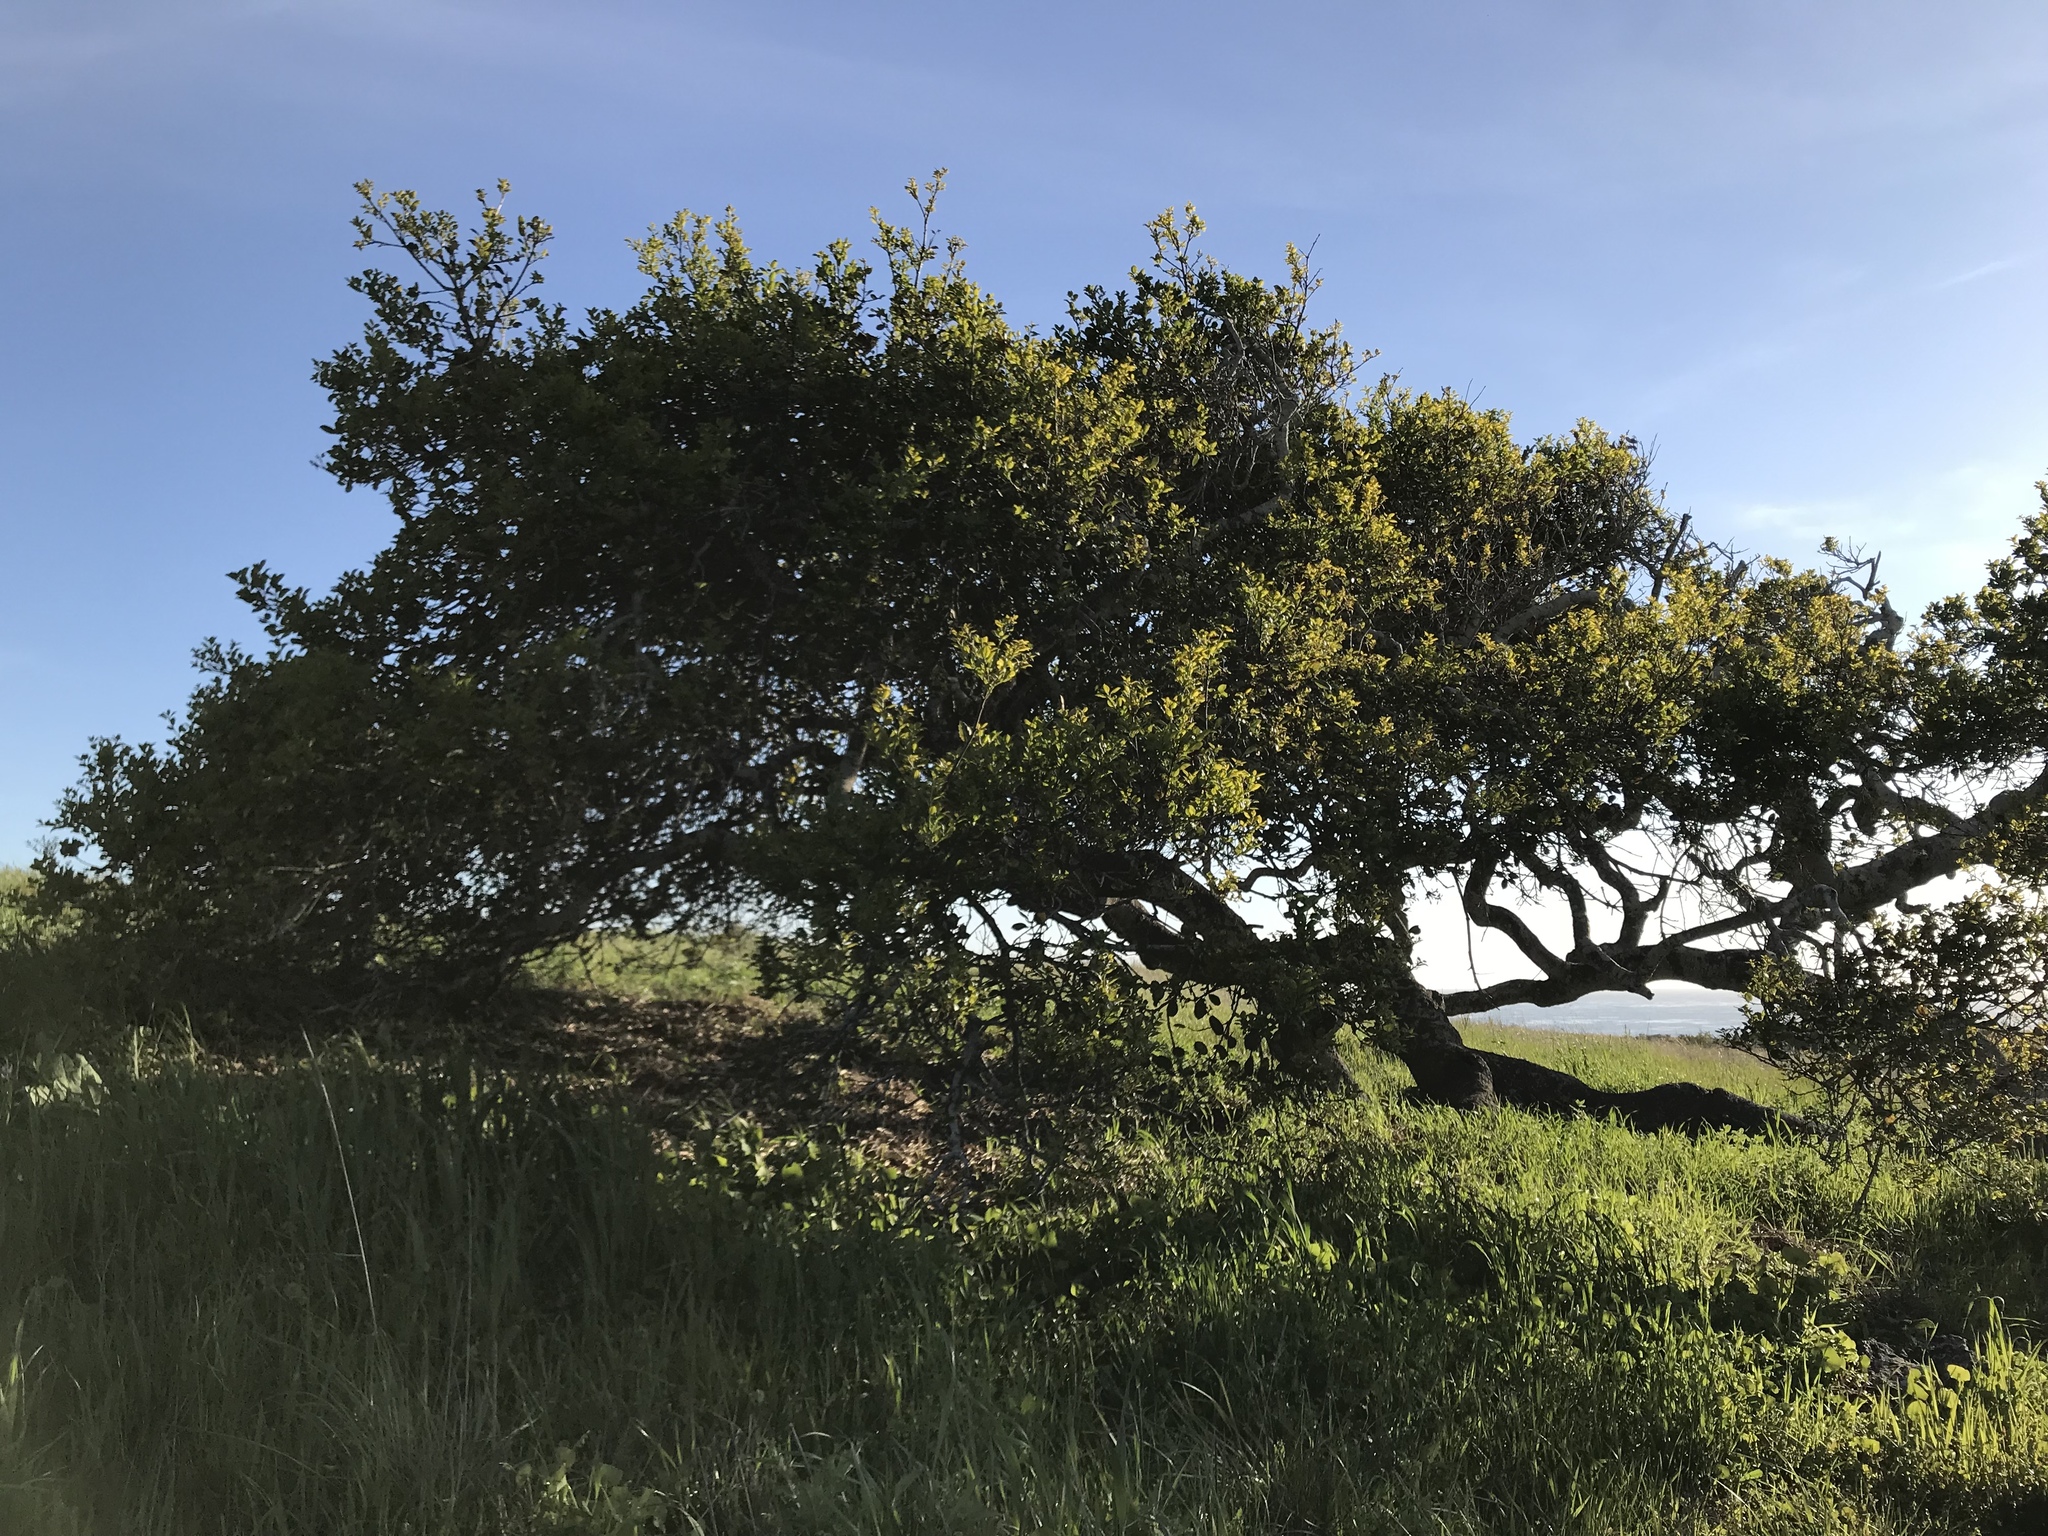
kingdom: Plantae
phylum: Tracheophyta
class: Magnoliopsida
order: Fagales
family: Fagaceae
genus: Quercus
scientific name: Quercus agrifolia
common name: California live oak
